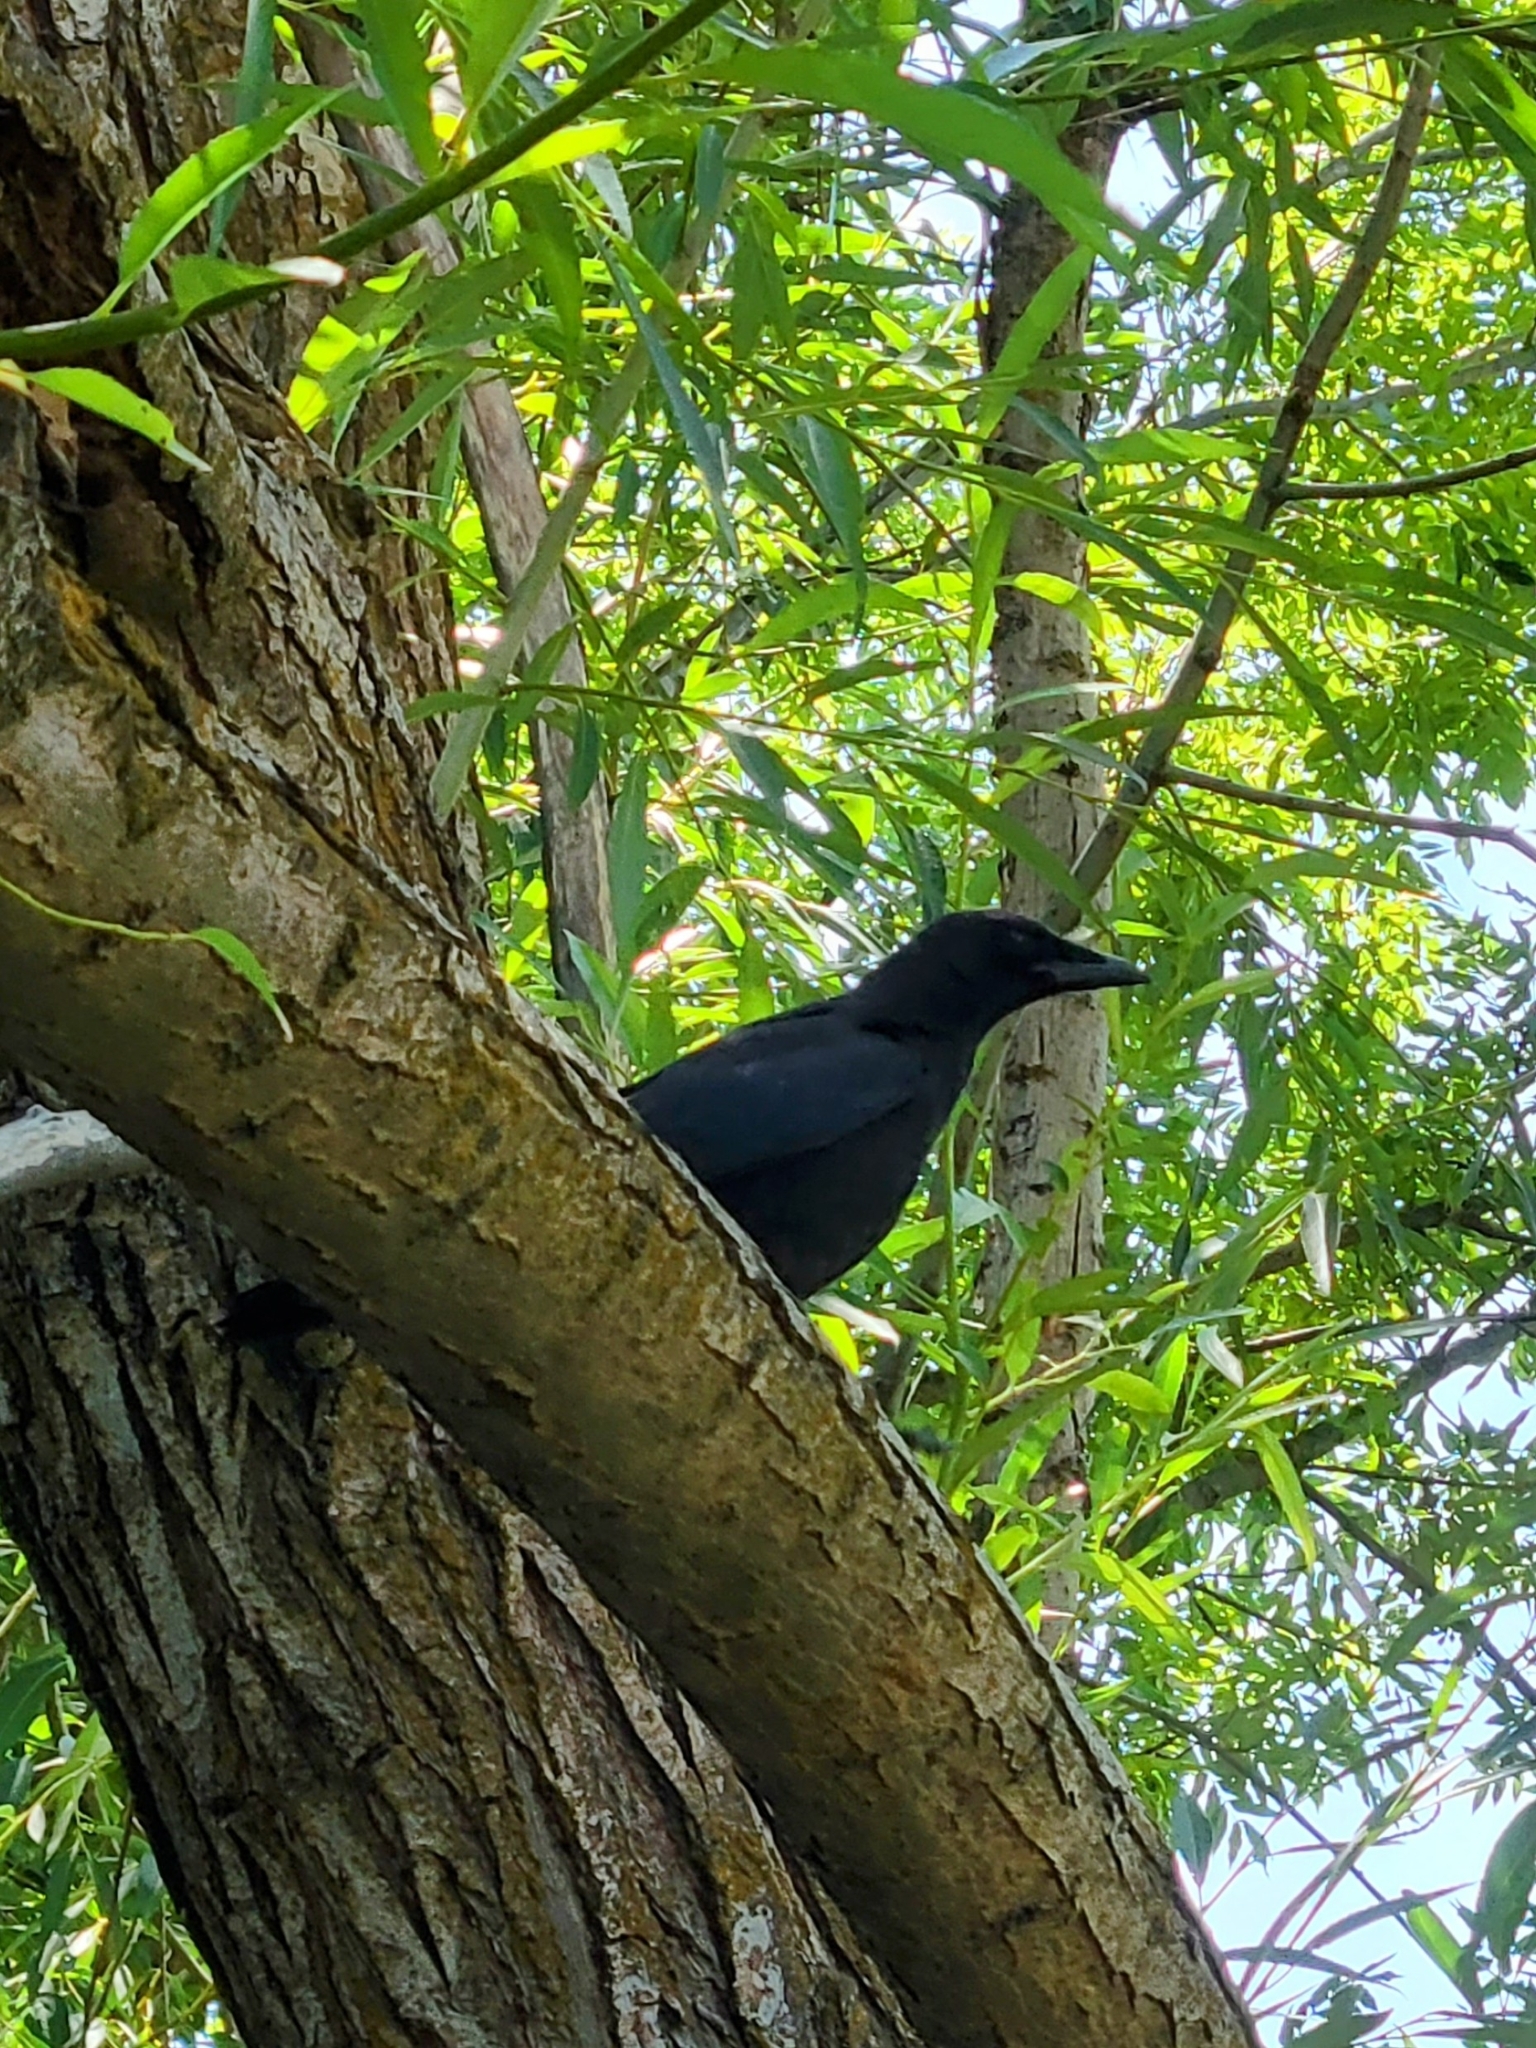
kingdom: Animalia
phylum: Chordata
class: Aves
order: Passeriformes
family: Corvidae
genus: Corvus
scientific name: Corvus brachyrhynchos
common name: American crow
